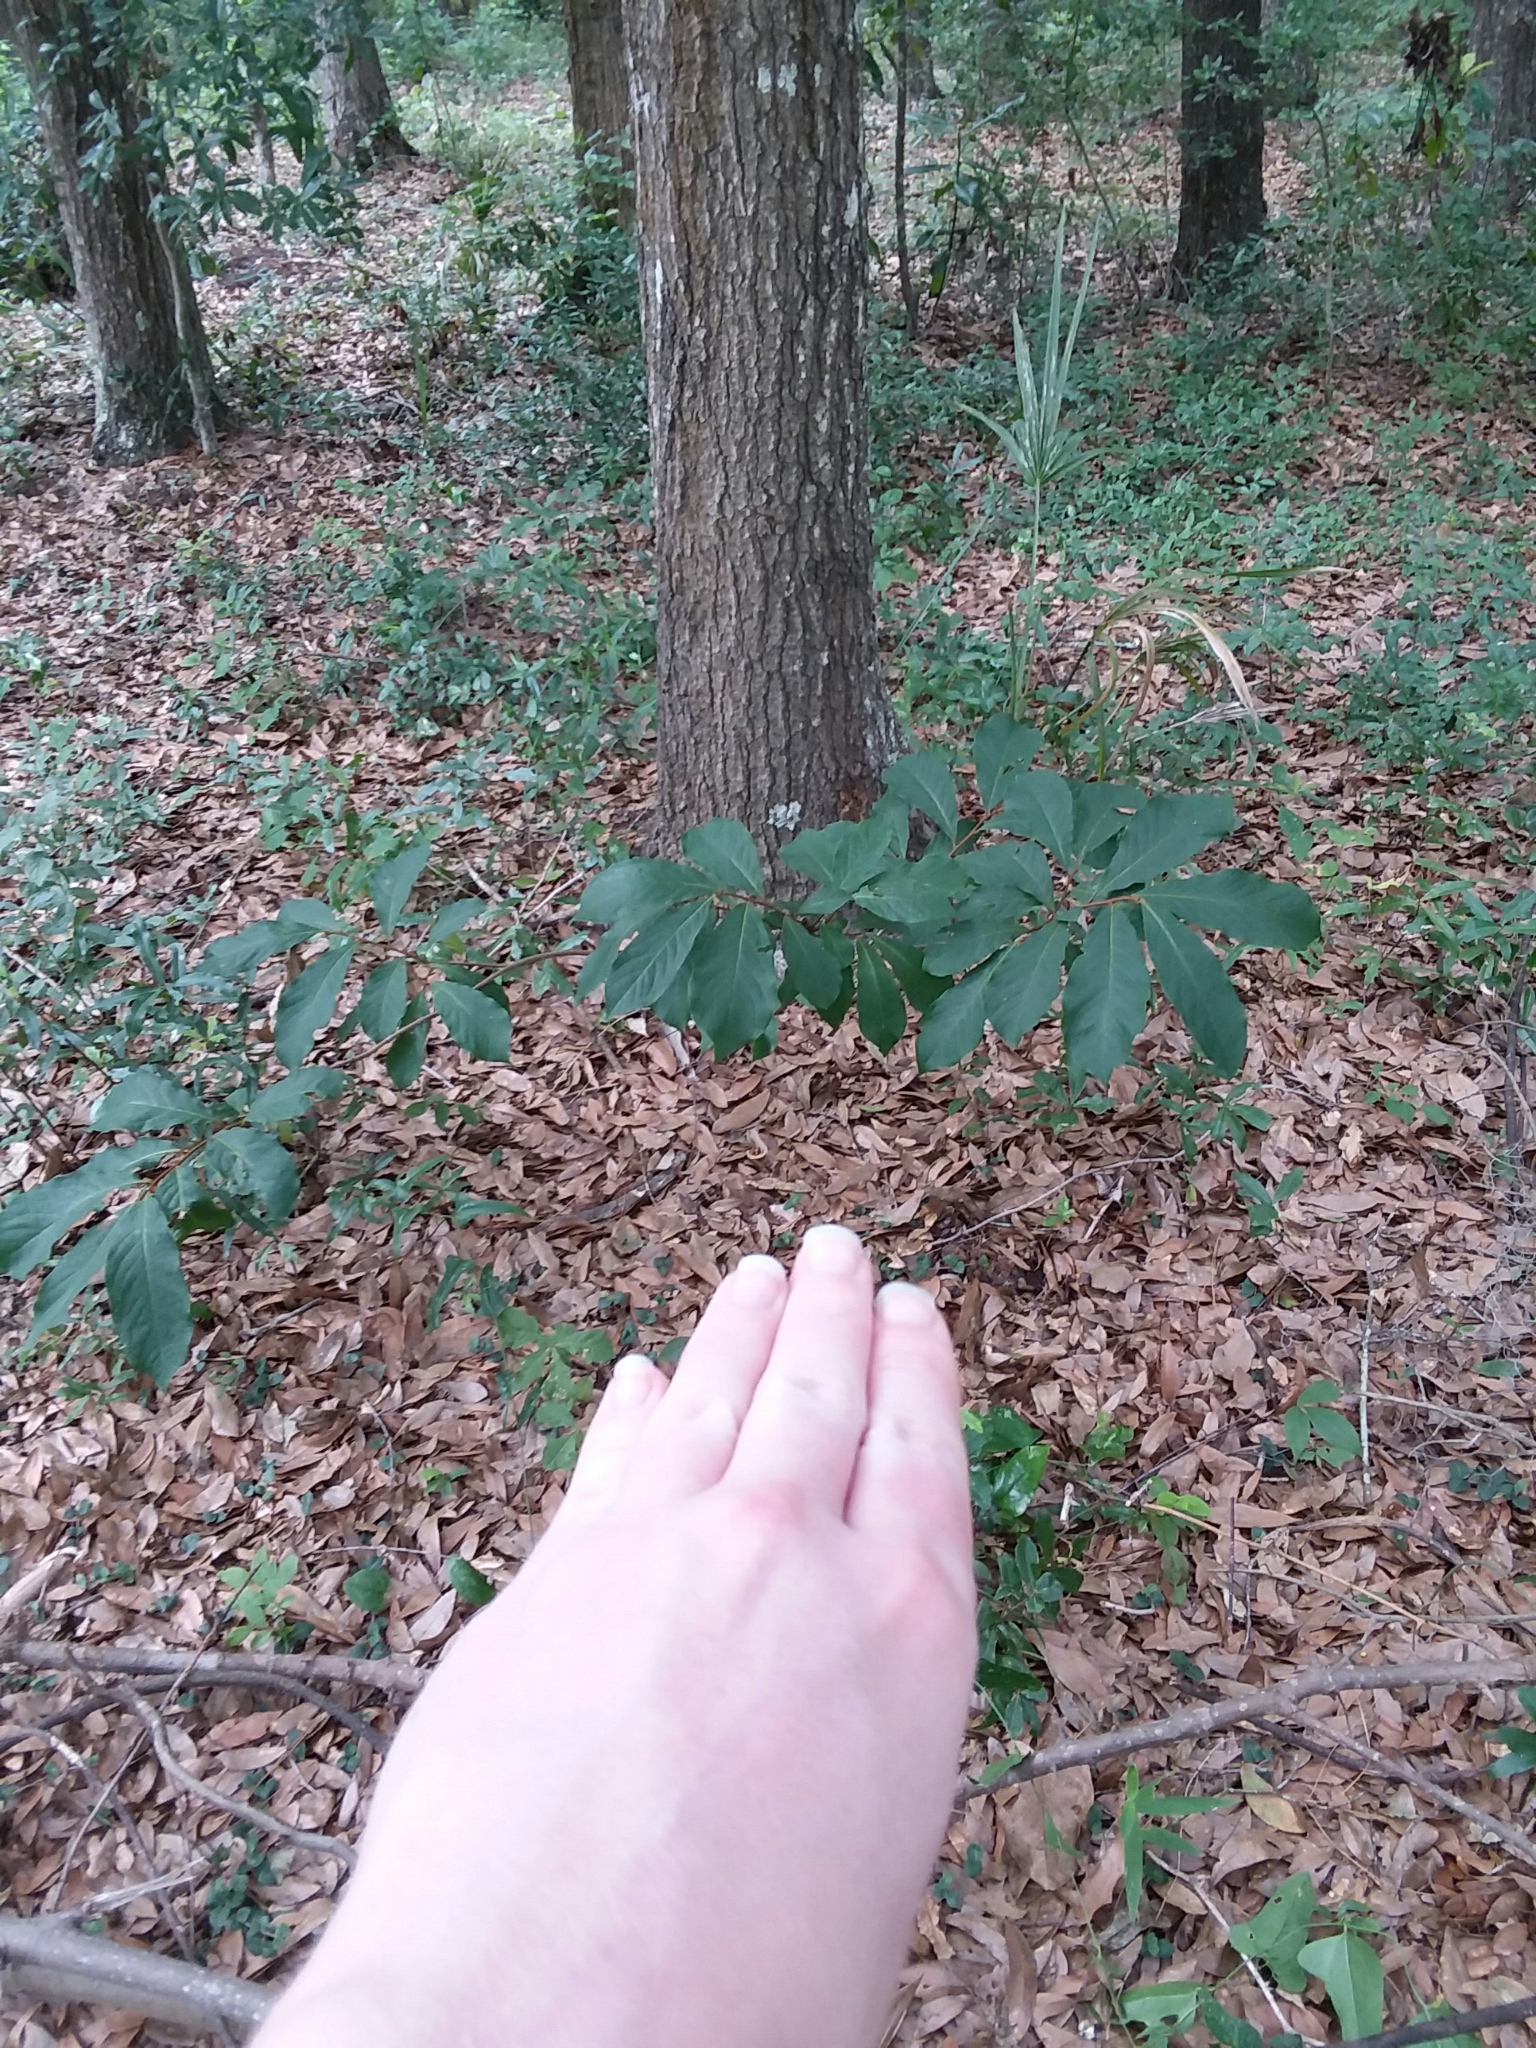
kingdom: Plantae
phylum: Tracheophyta
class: Magnoliopsida
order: Magnoliales
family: Annonaceae
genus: Asimina
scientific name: Asimina parviflora
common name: Dwarf pawpaw
